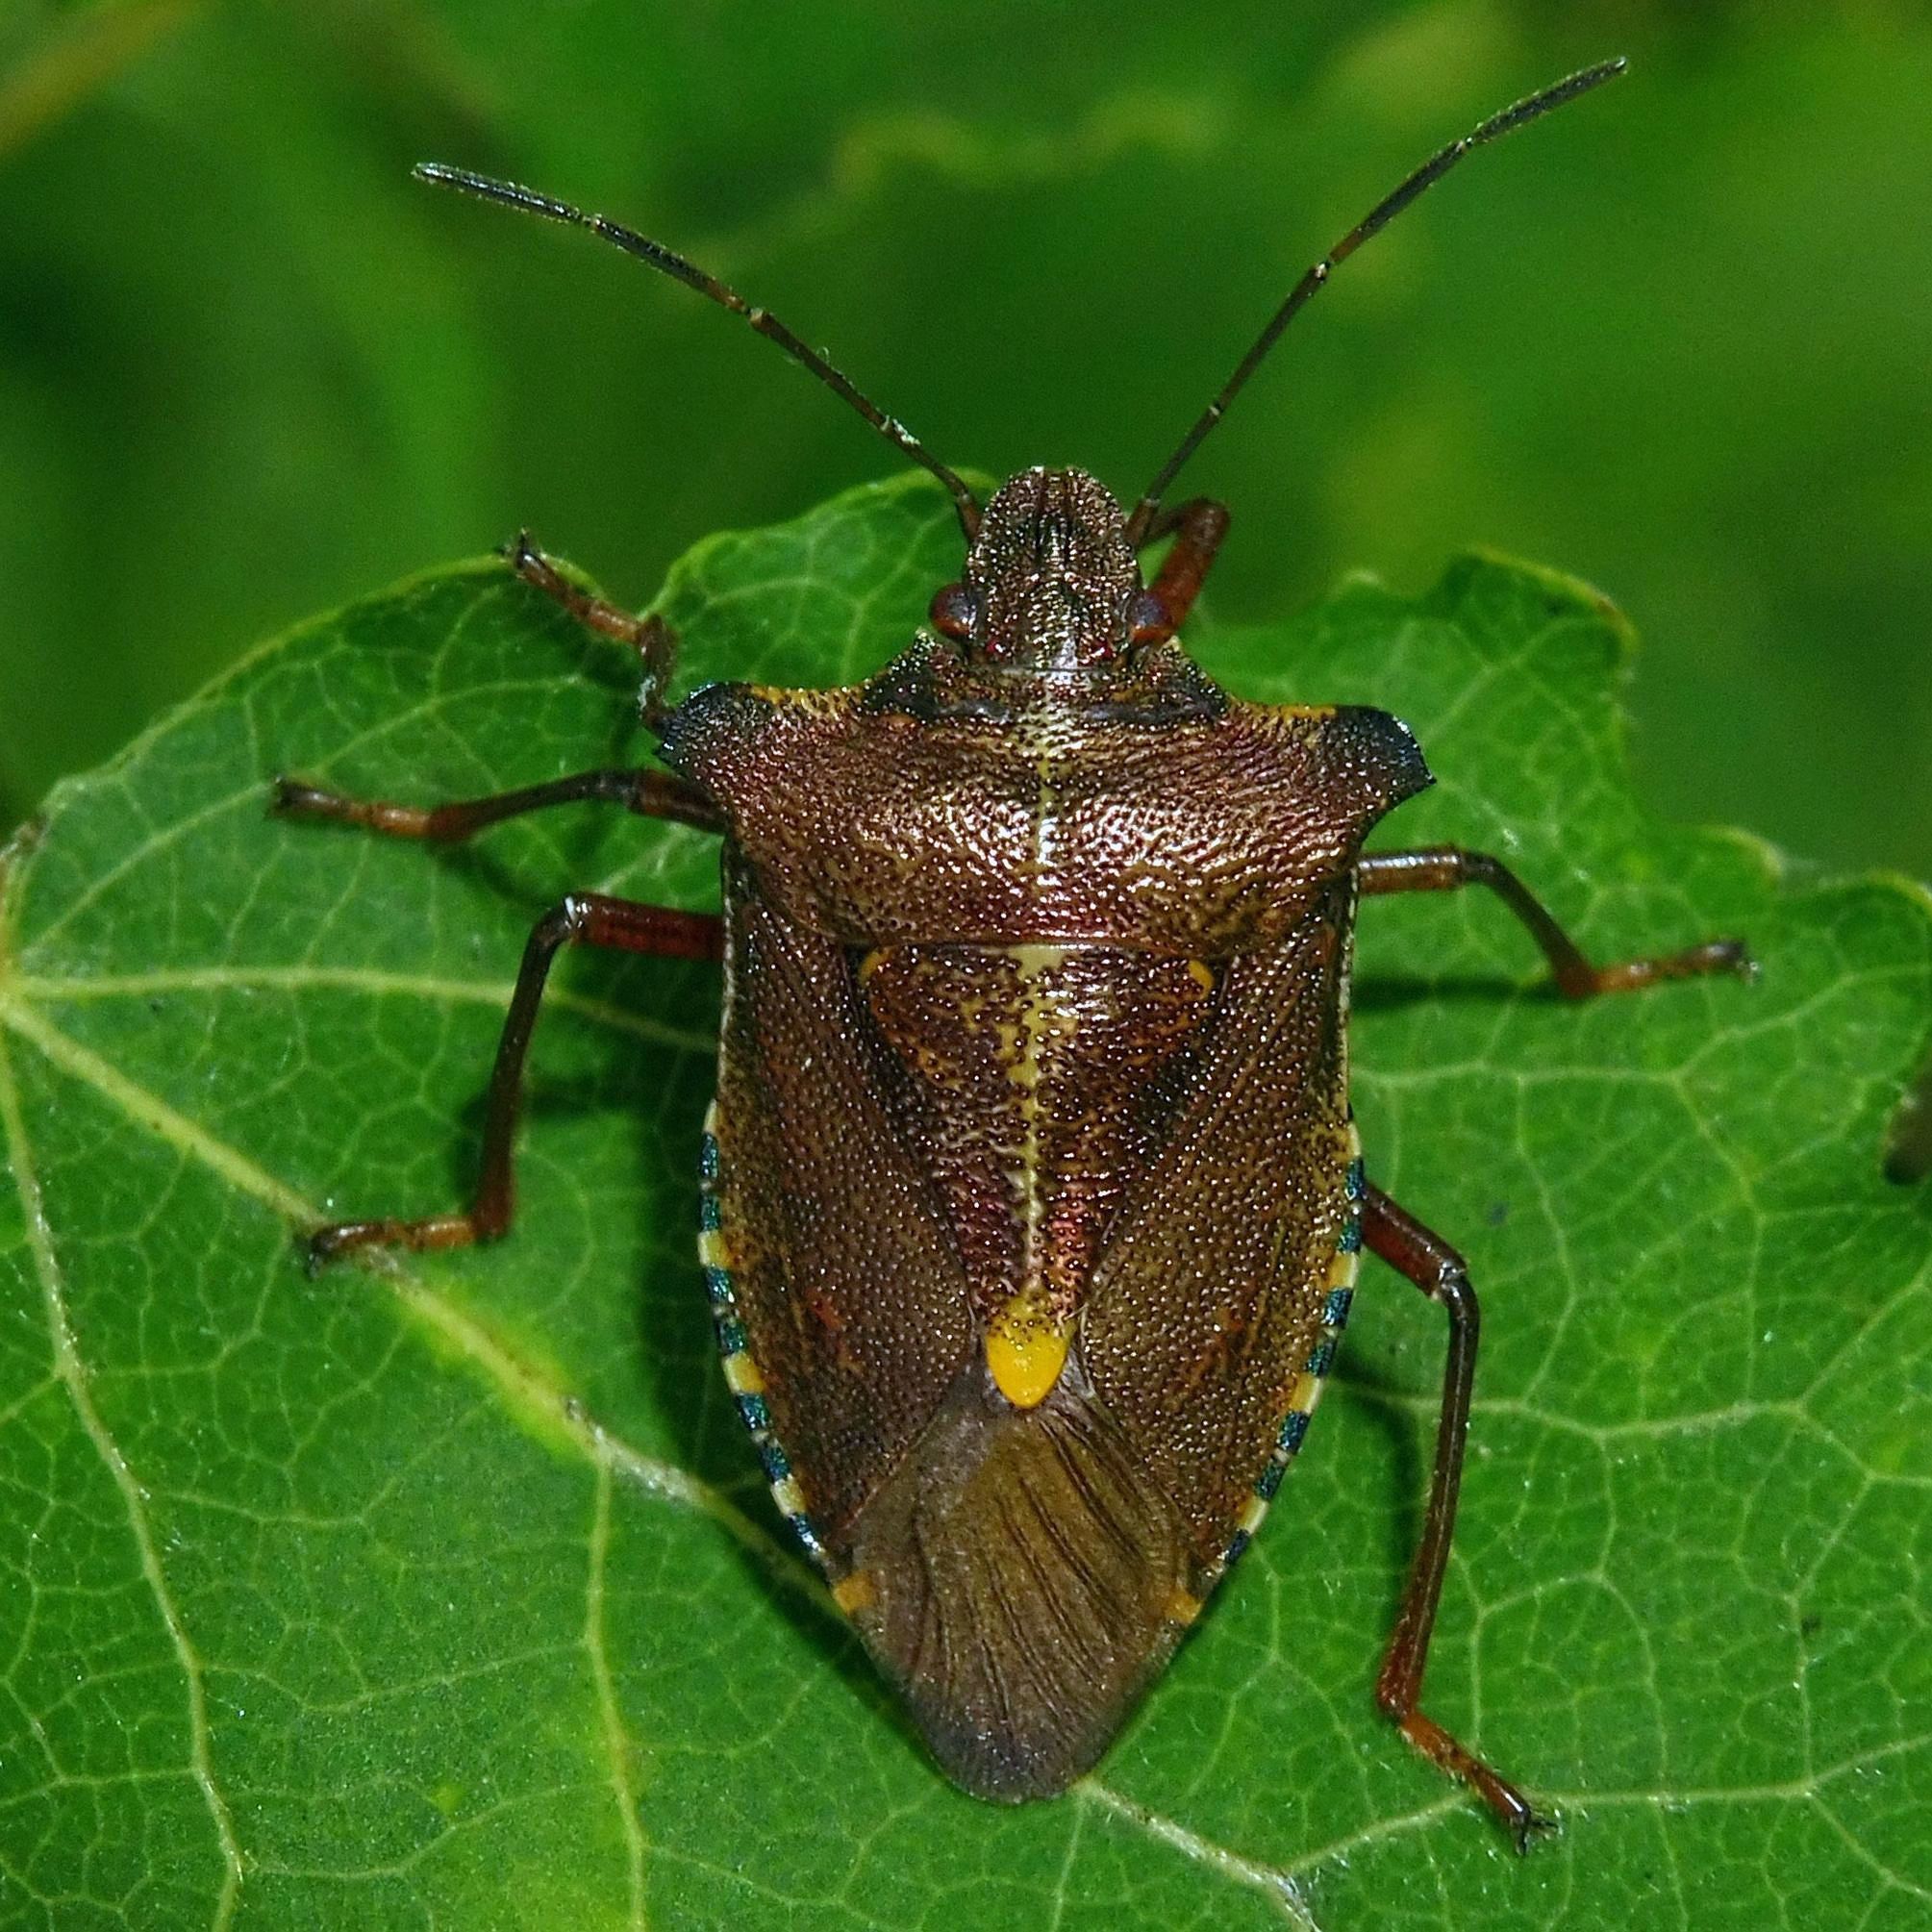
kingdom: Animalia
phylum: Arthropoda
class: Insecta
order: Hemiptera
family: Pentatomidae
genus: Pentatoma
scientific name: Pentatoma rufipes
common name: Forest bug
